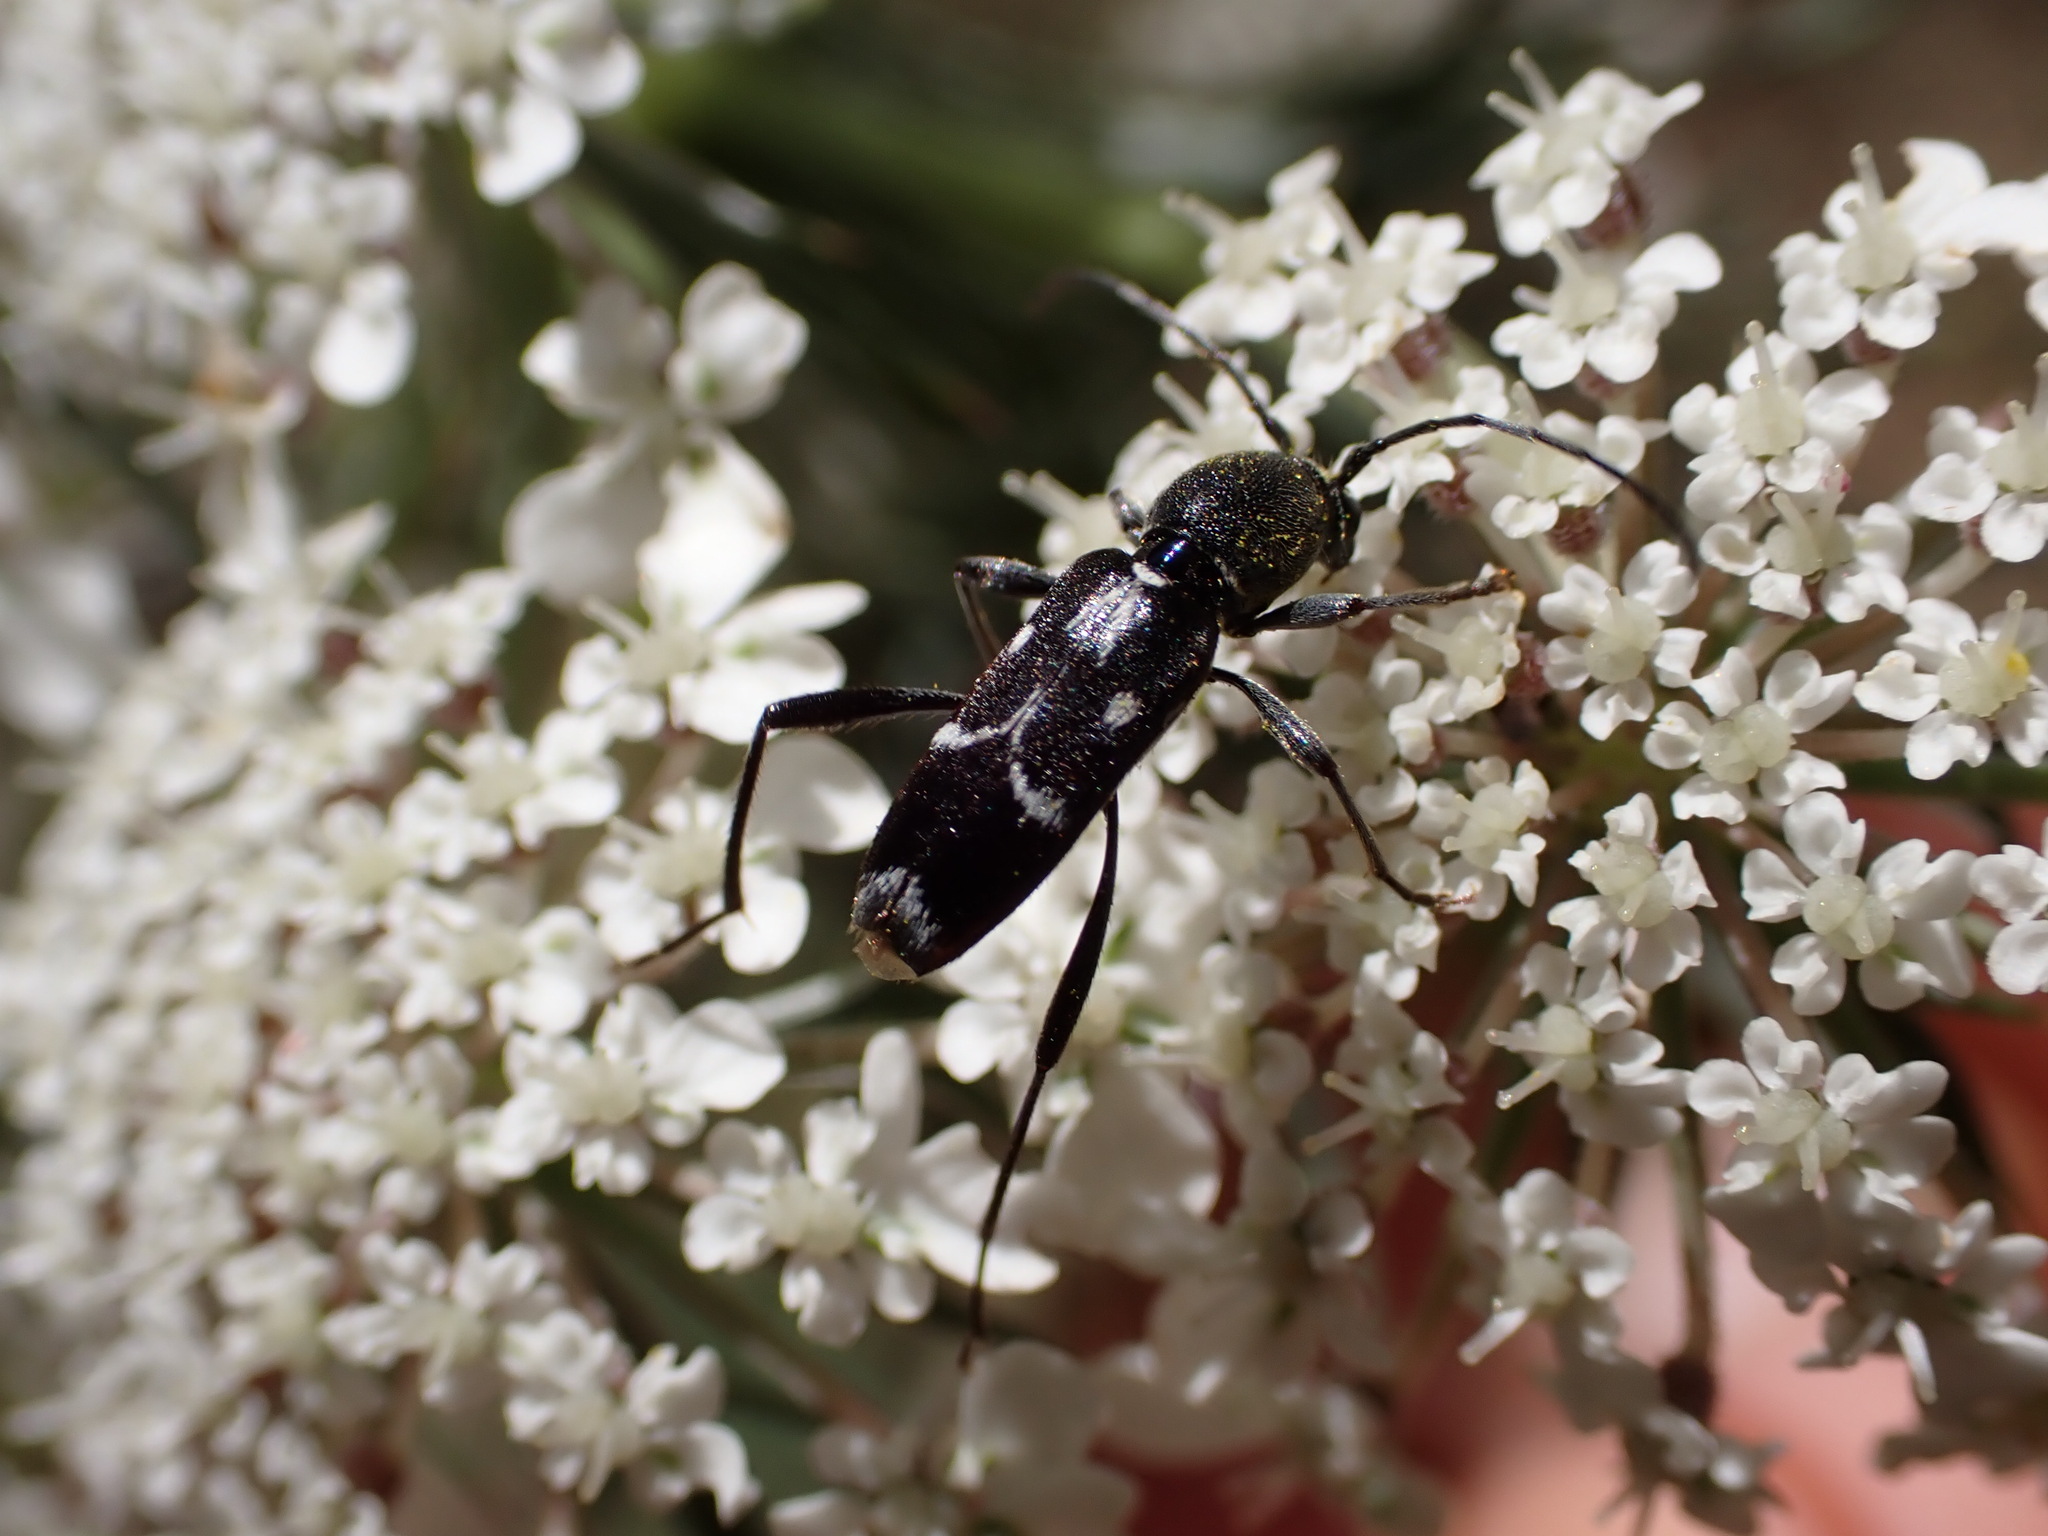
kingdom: Animalia
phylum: Arthropoda
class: Insecta
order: Coleoptera
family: Cerambycidae
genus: Chlorophorus
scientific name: Chlorophorus sartor
